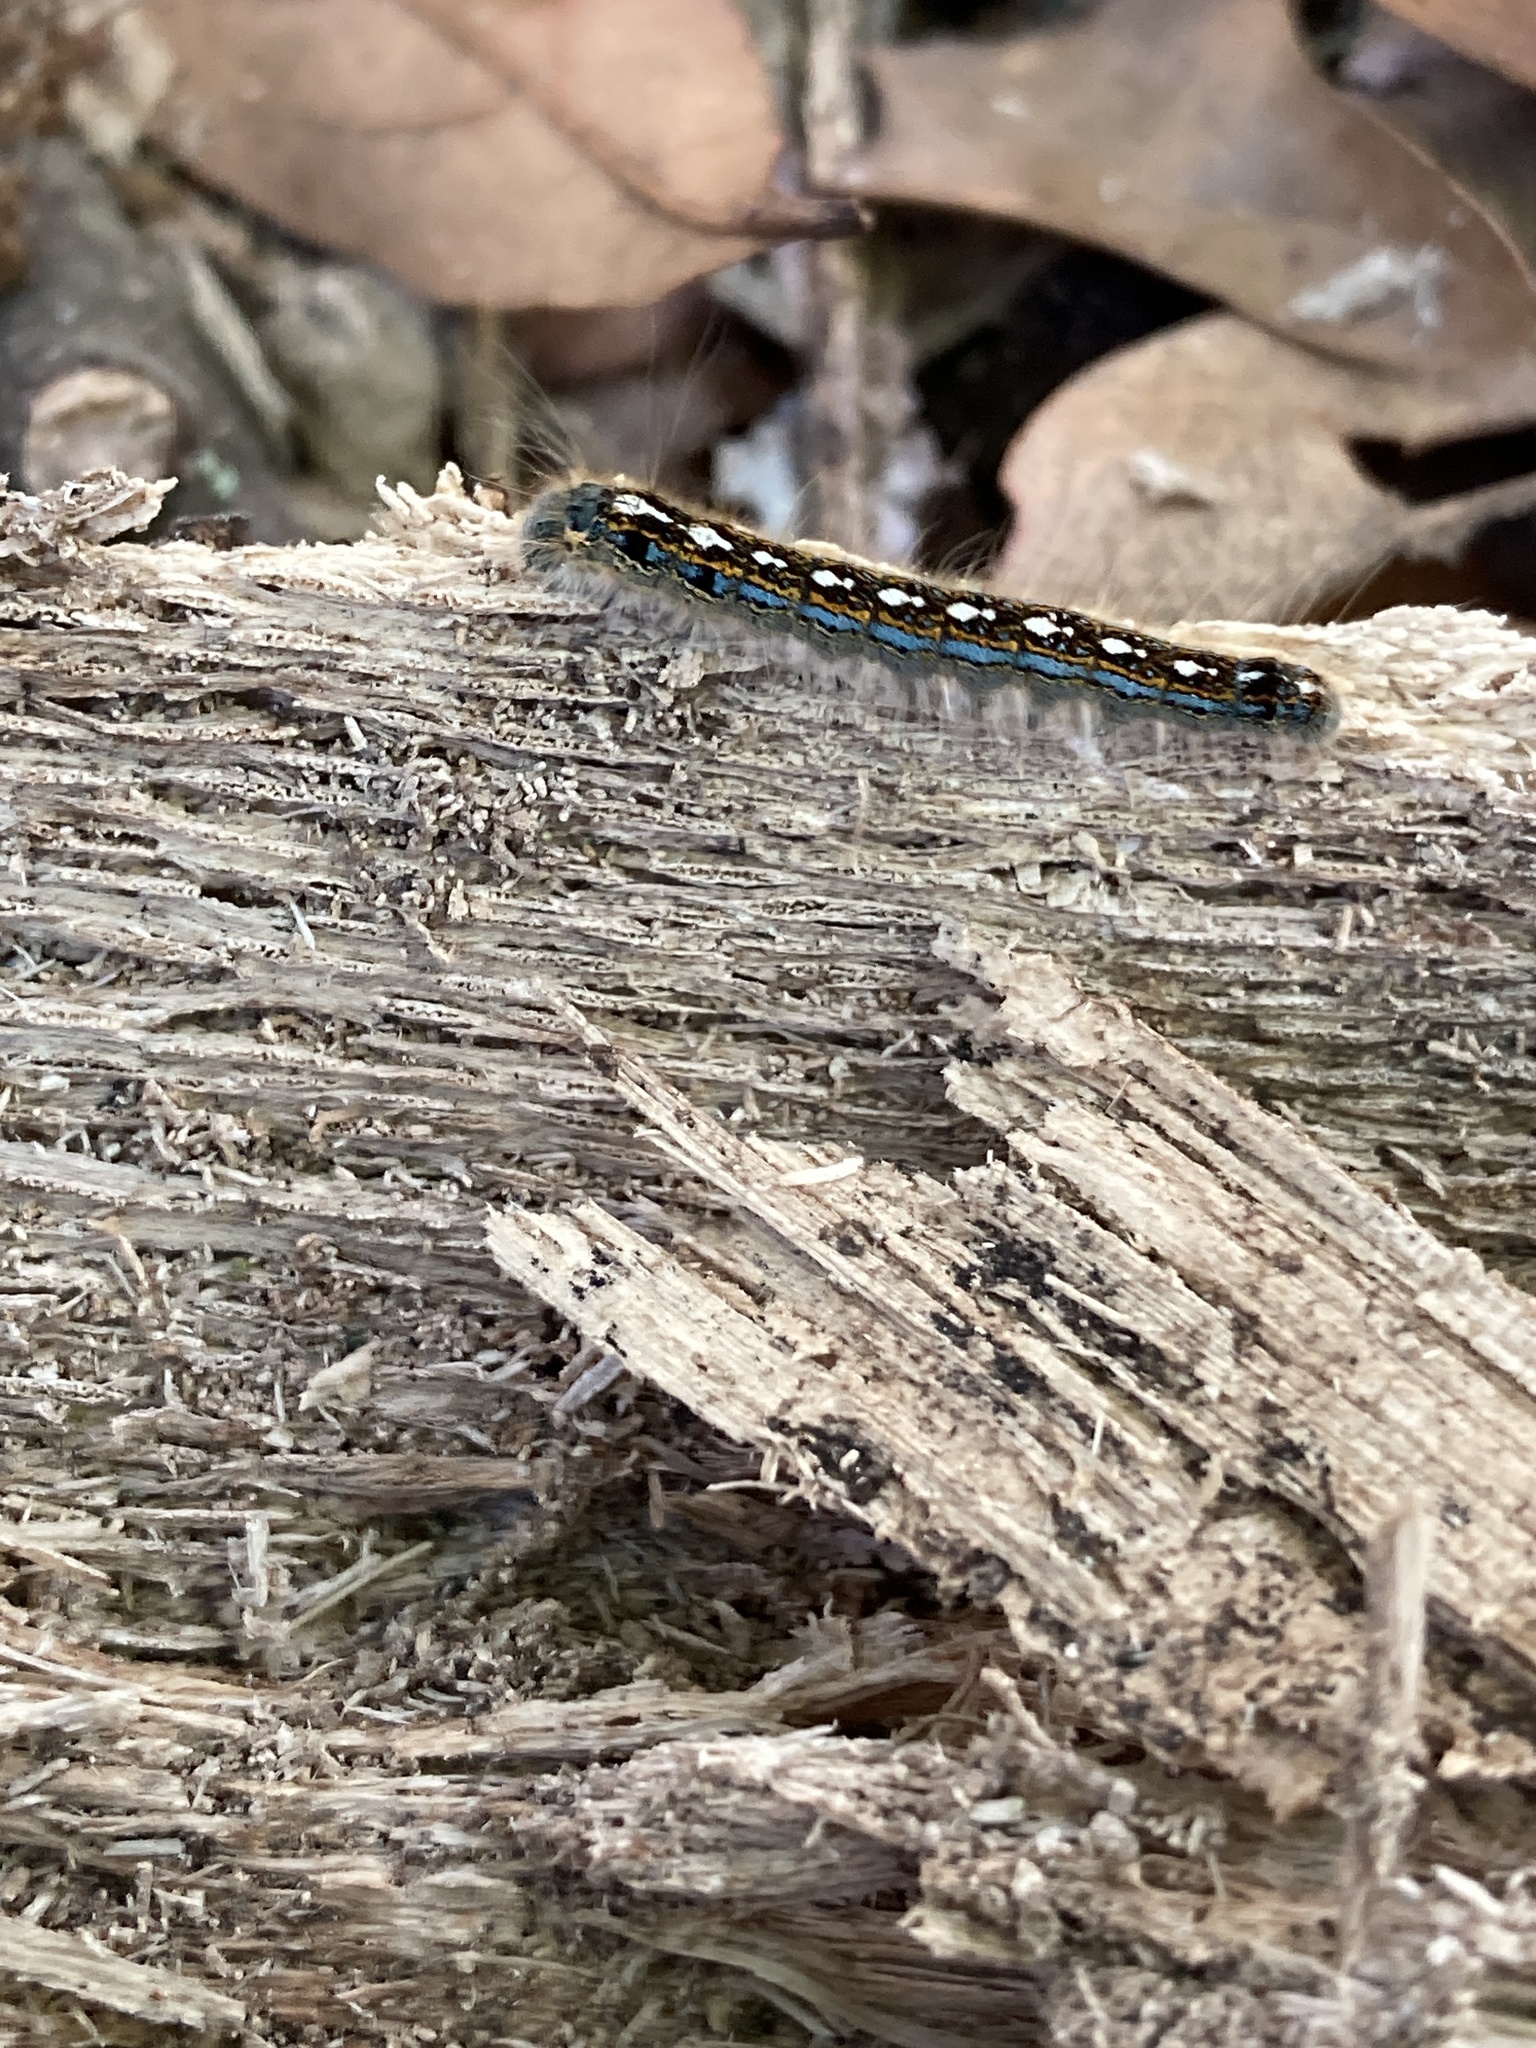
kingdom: Animalia
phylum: Arthropoda
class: Insecta
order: Lepidoptera
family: Lasiocampidae
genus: Malacosoma
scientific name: Malacosoma disstria
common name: Forest tent caterpillar
